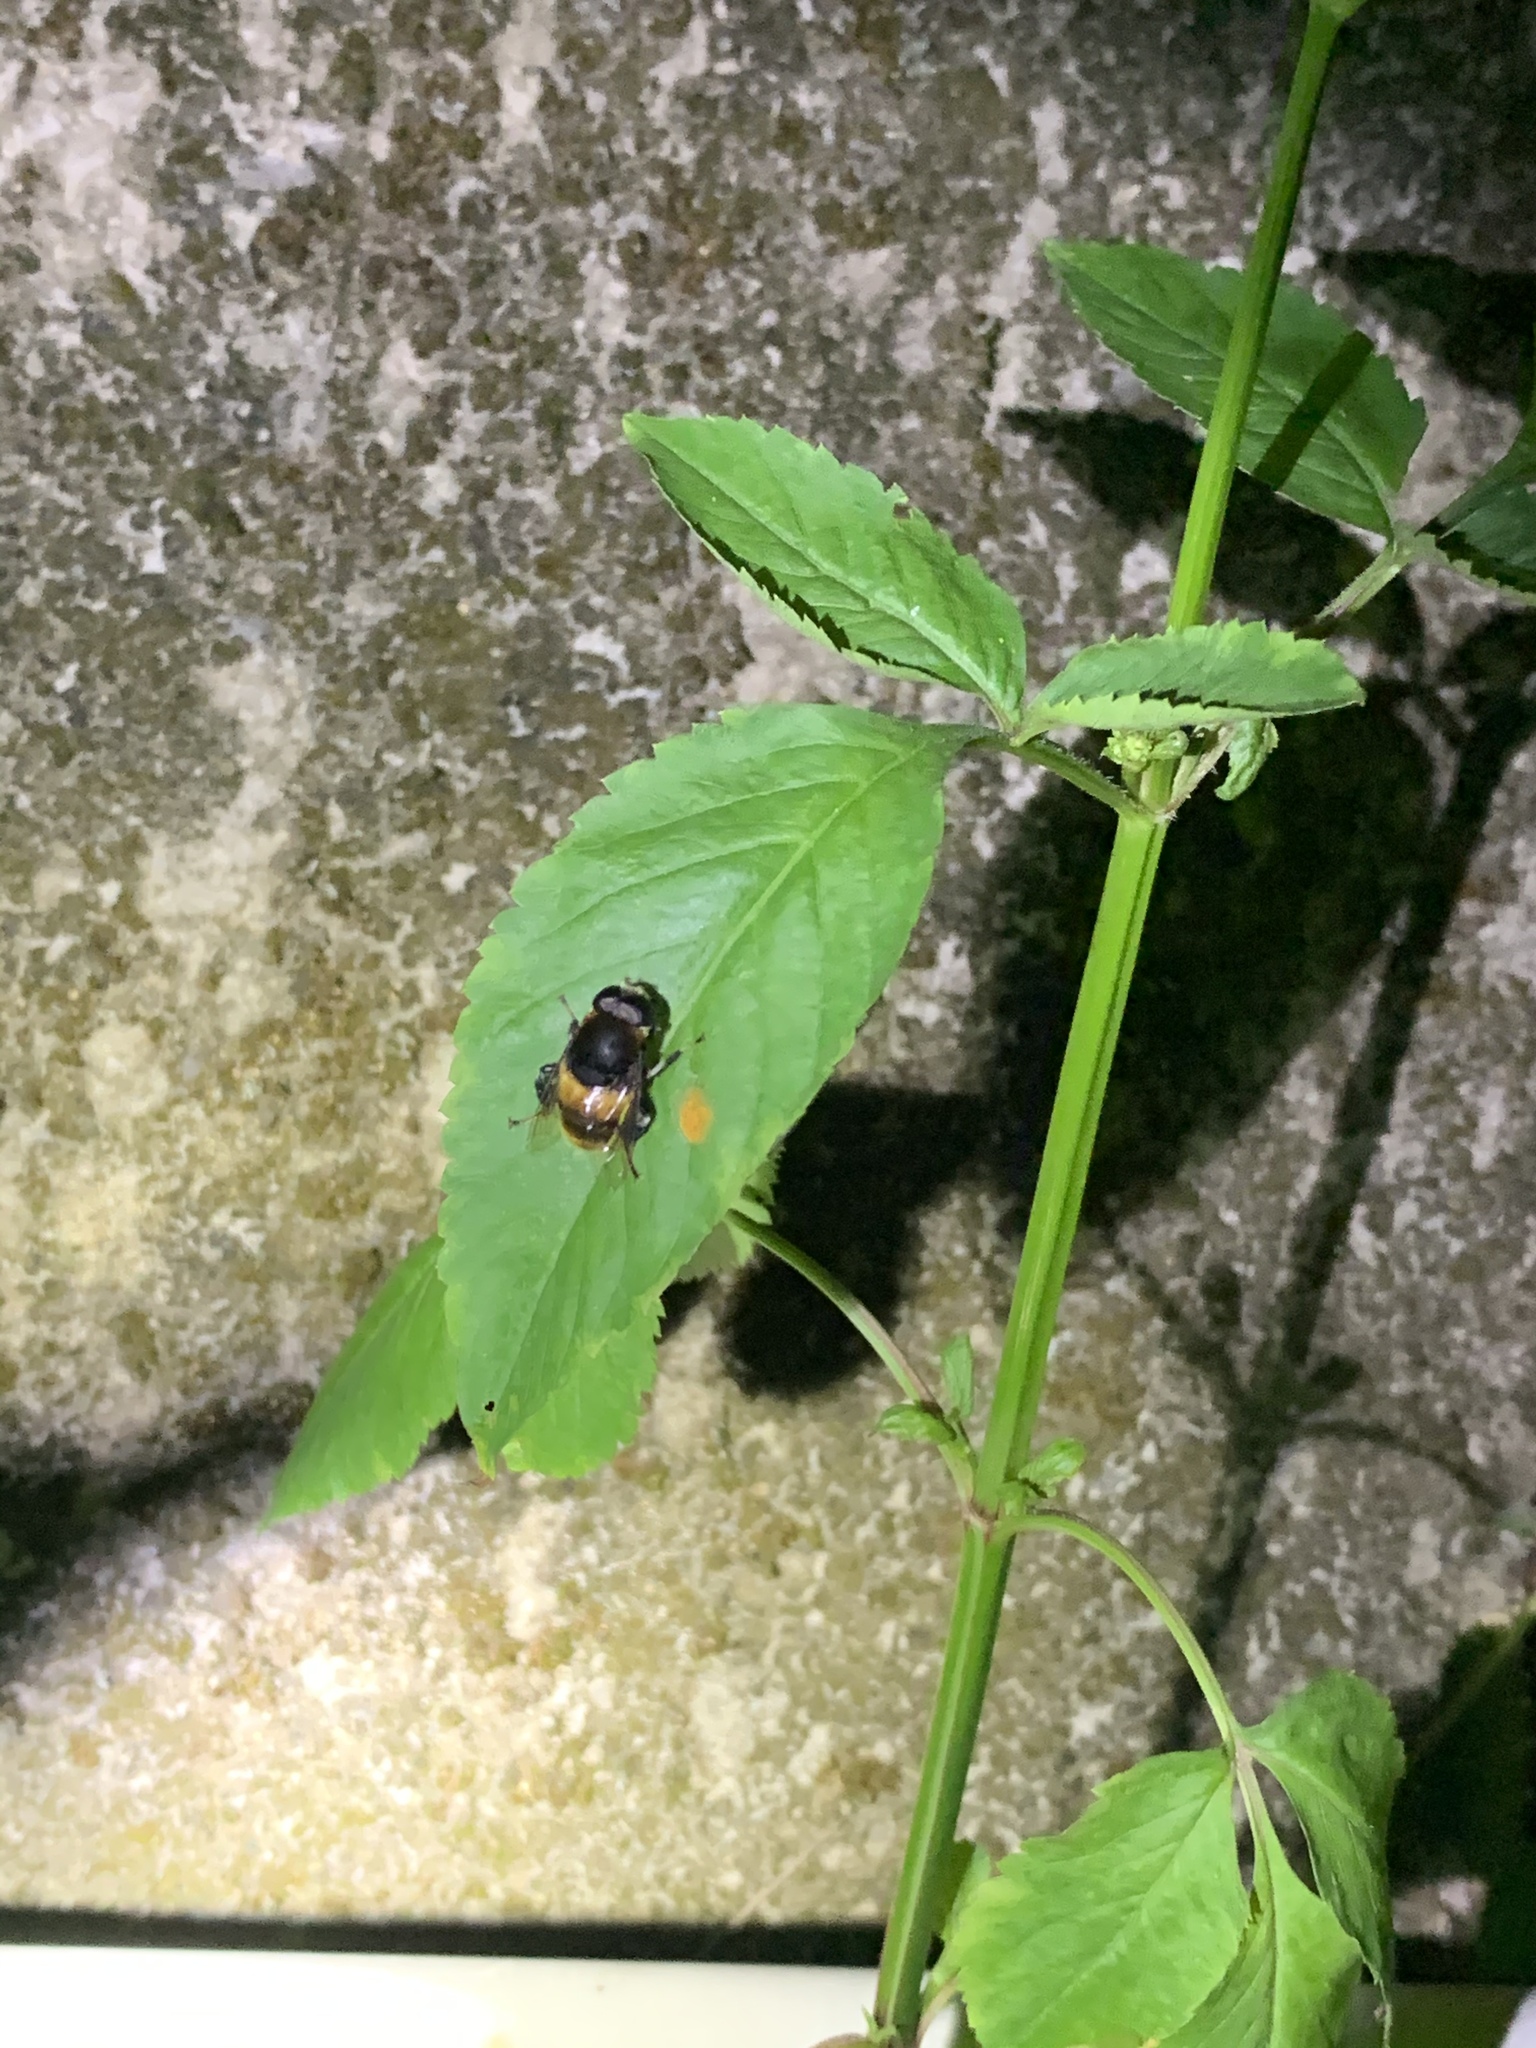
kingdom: Animalia
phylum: Arthropoda
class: Insecta
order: Diptera
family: Syrphidae
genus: Phytomia
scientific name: Phytomia zonata
